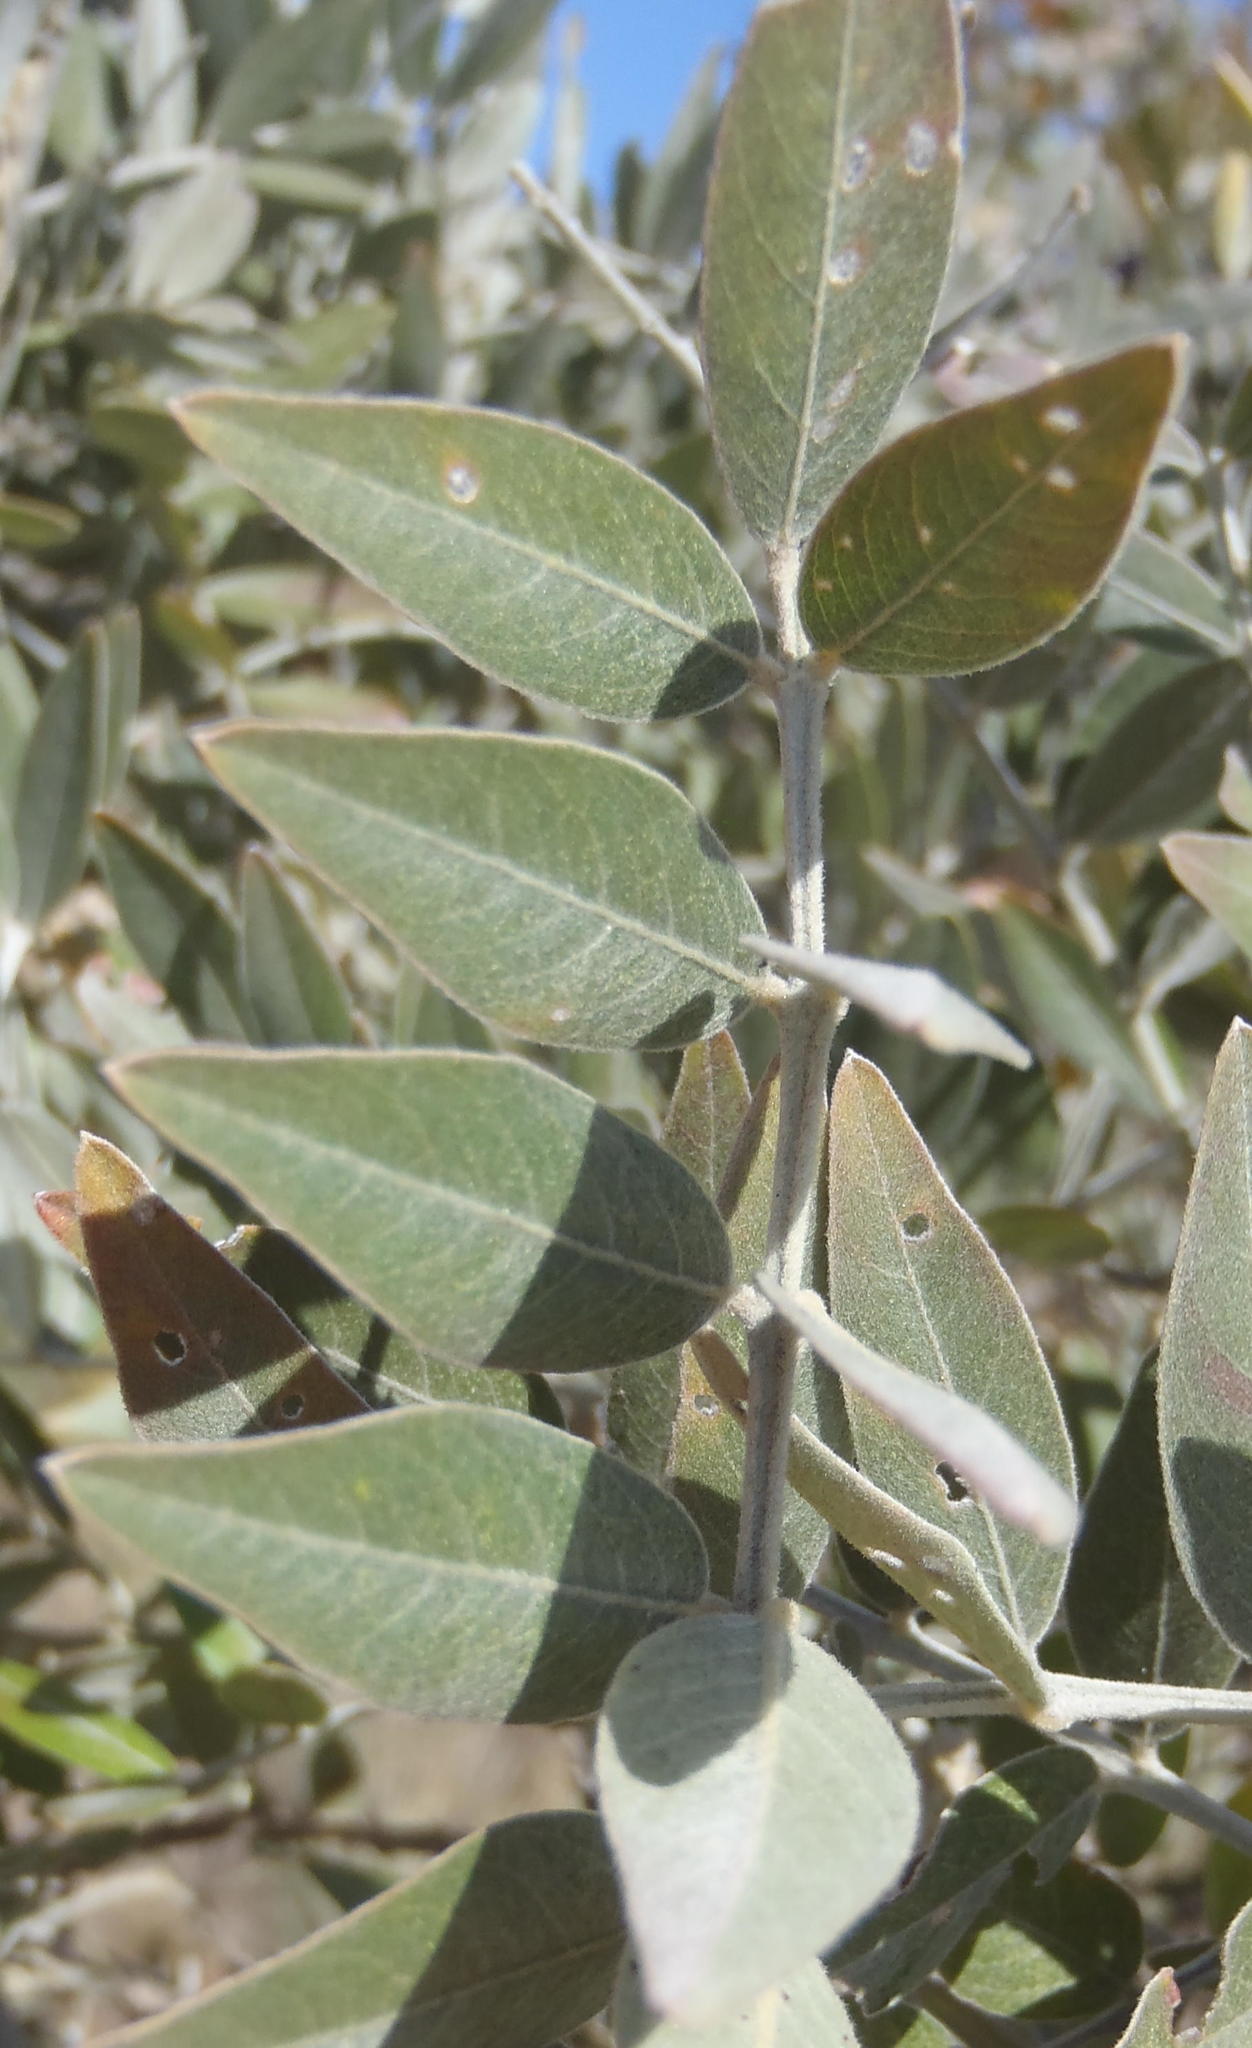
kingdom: Plantae
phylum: Tracheophyta
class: Magnoliopsida
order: Fabales
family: Fabaceae
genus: Mundulea
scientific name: Mundulea sericea
